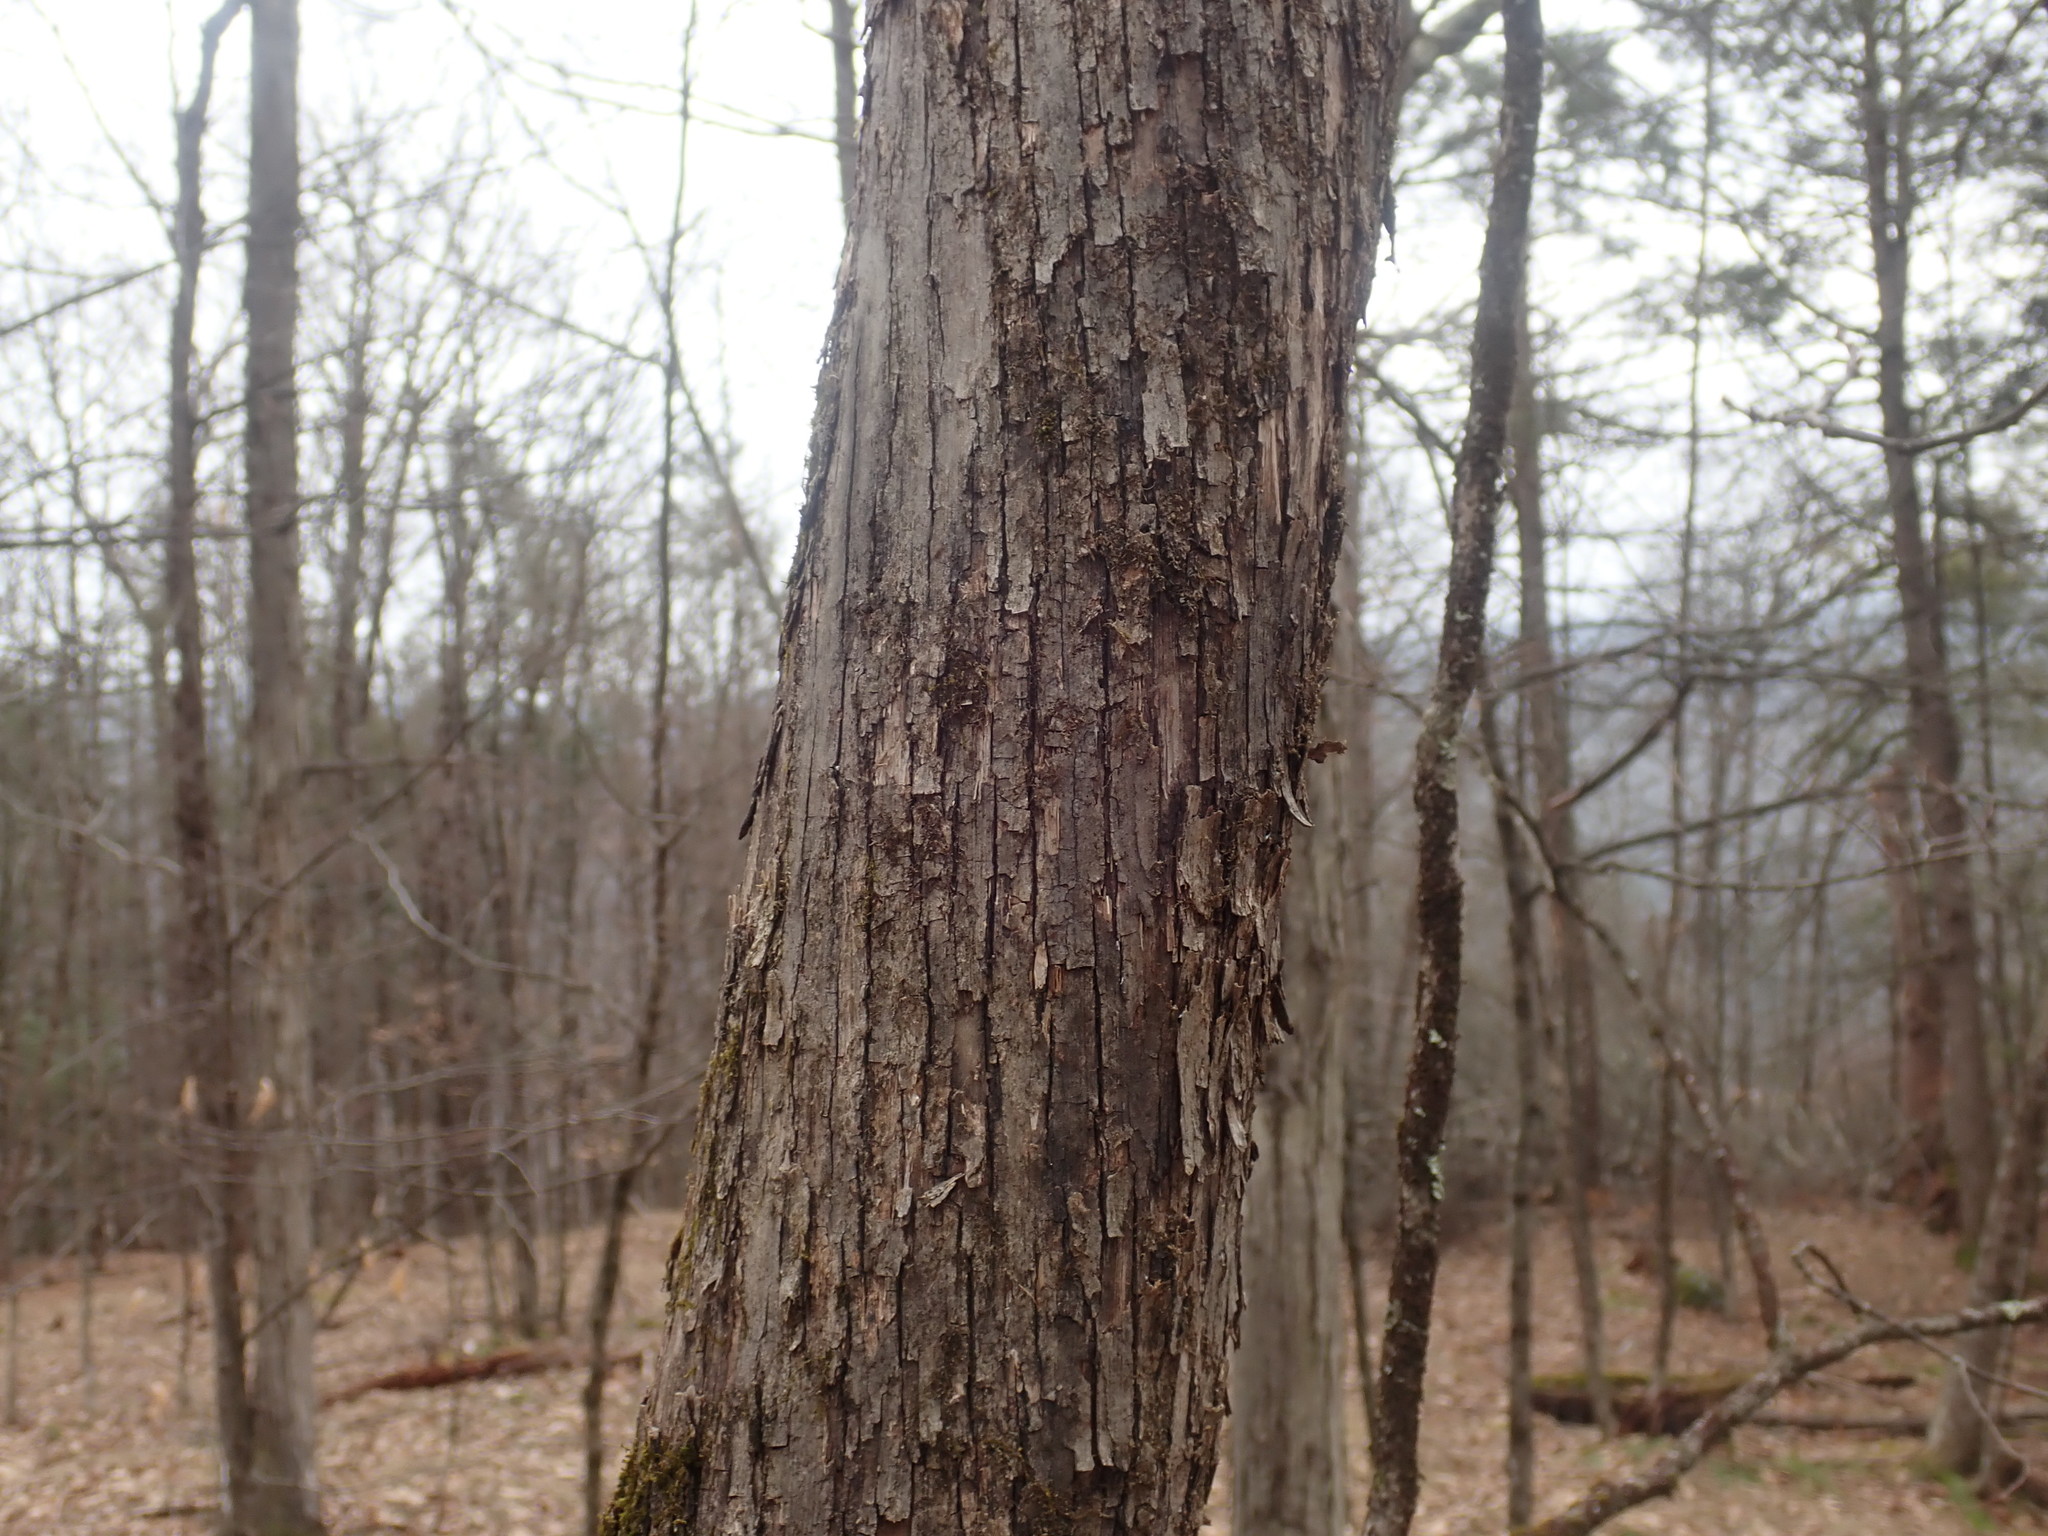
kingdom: Plantae
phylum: Tracheophyta
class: Magnoliopsida
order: Fagales
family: Betulaceae
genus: Ostrya
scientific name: Ostrya virginiana
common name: Ironwood
